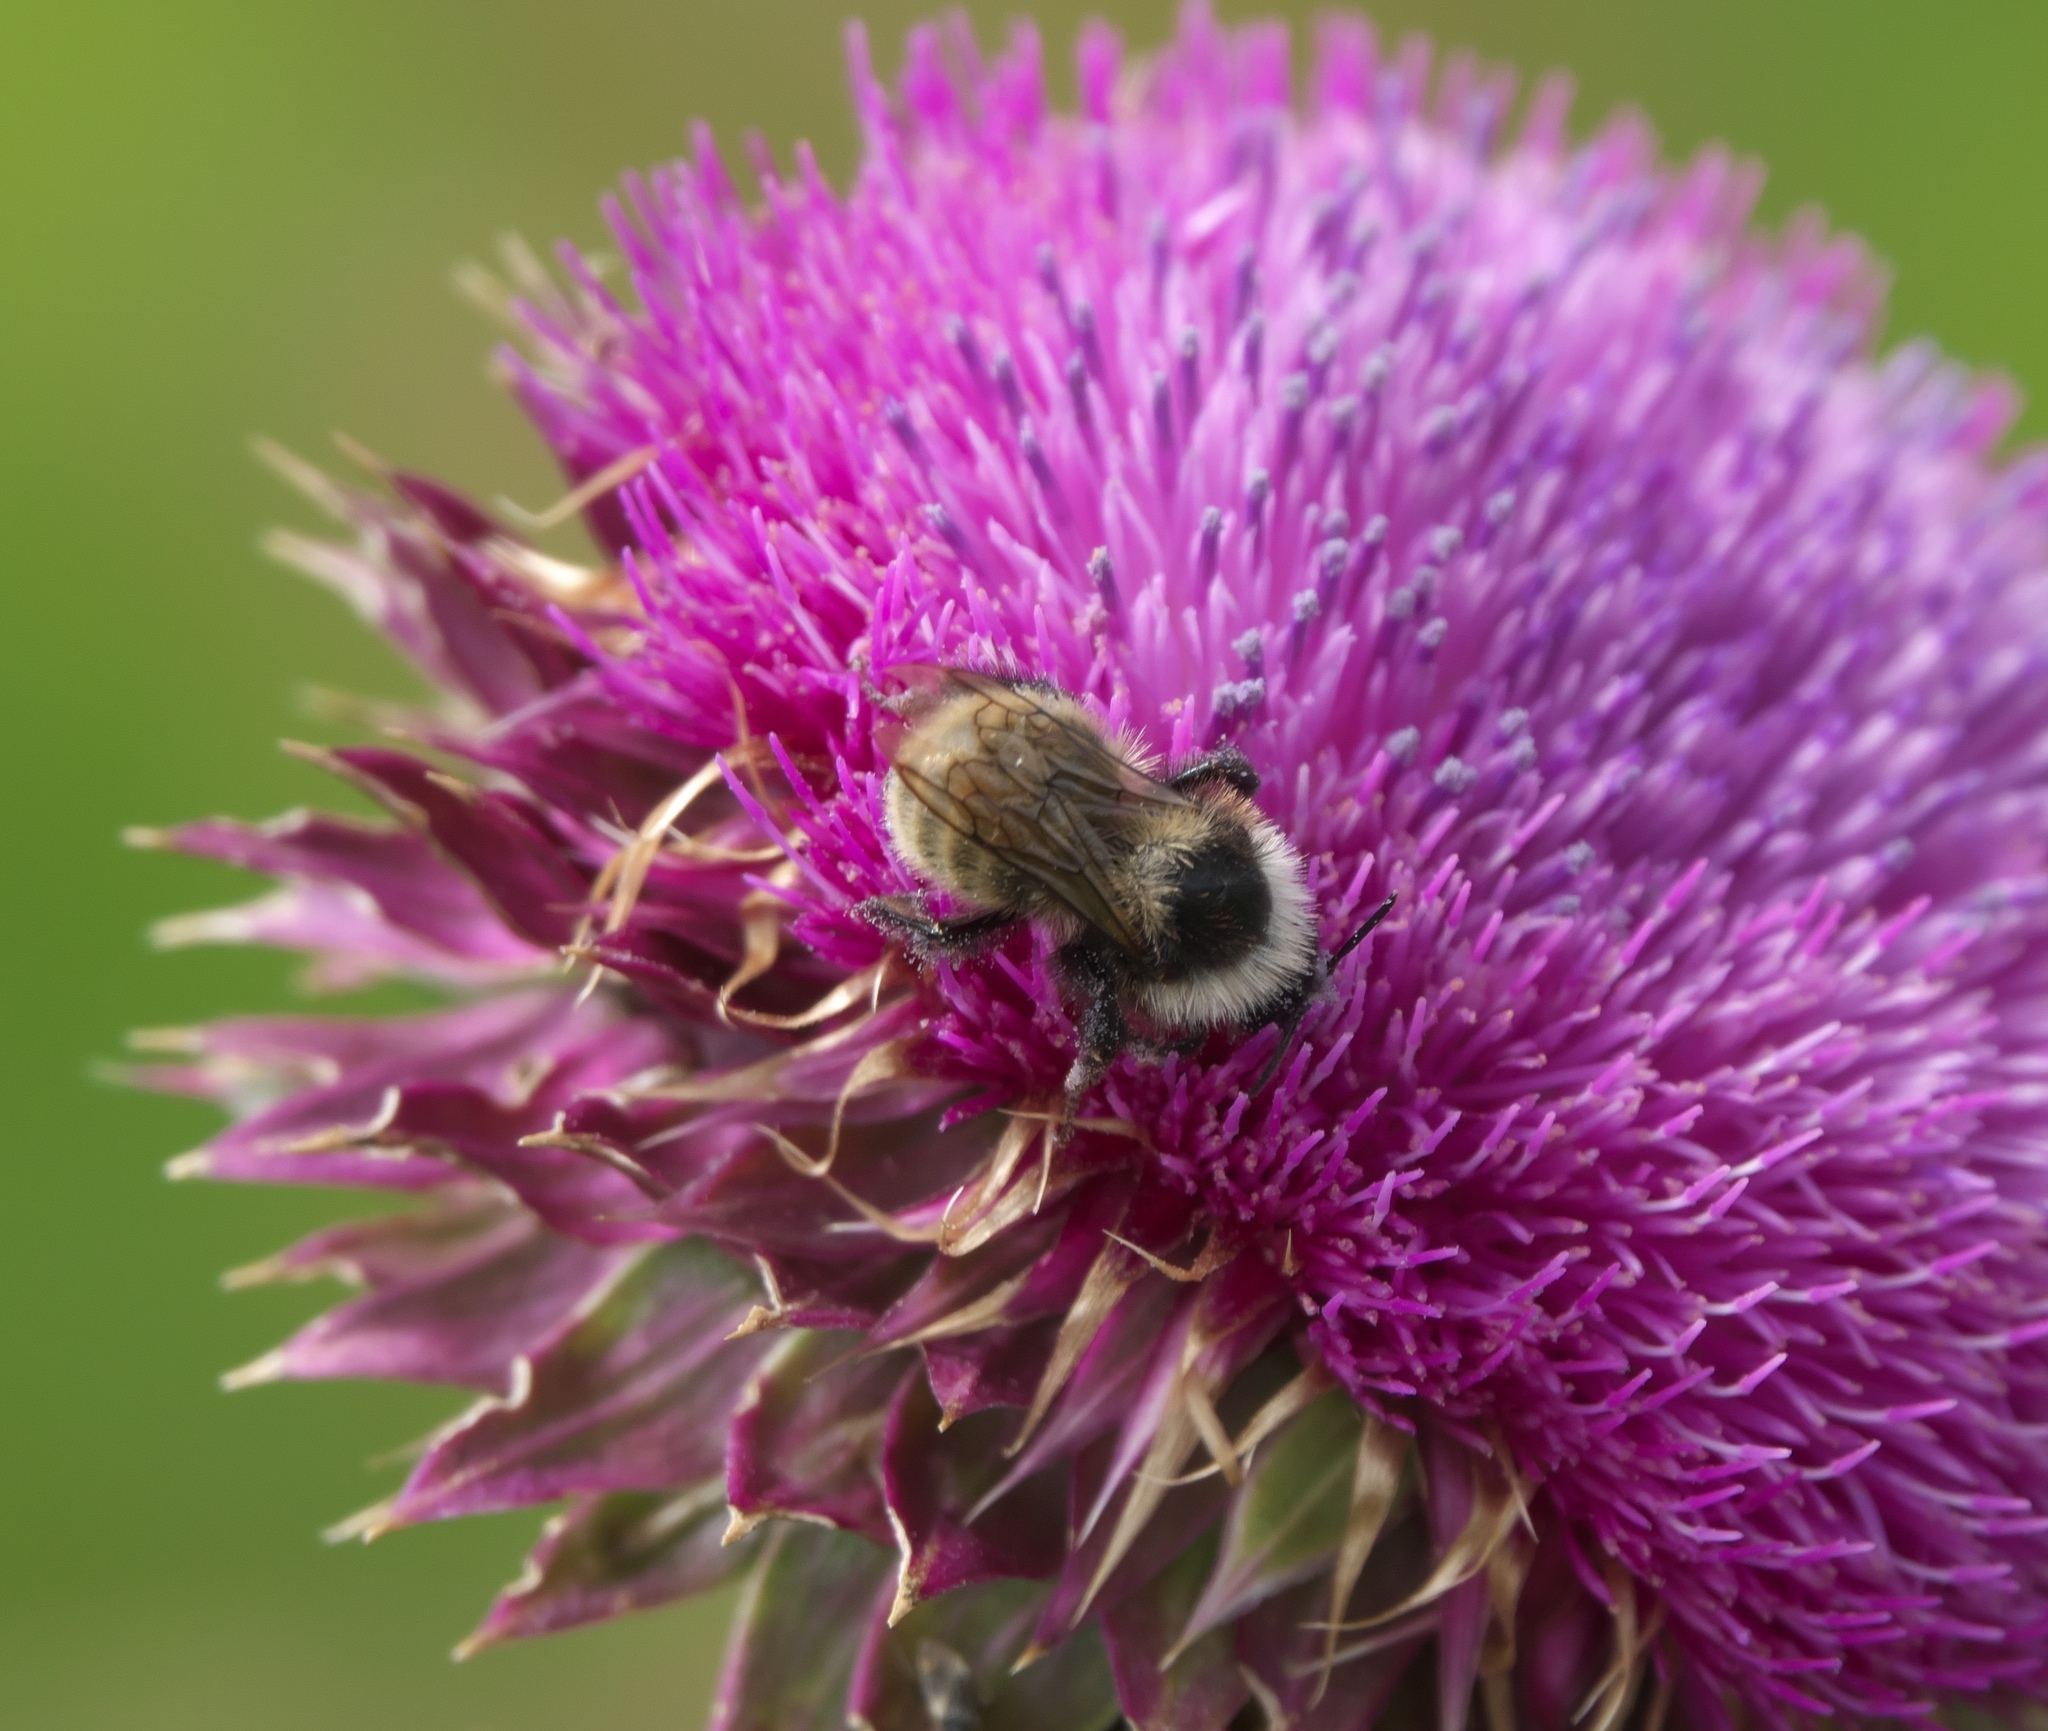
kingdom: Animalia
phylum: Arthropoda
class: Insecta
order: Hymenoptera
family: Apidae
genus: Bombus
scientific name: Bombus appositus
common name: White-shouldered bumble bee
